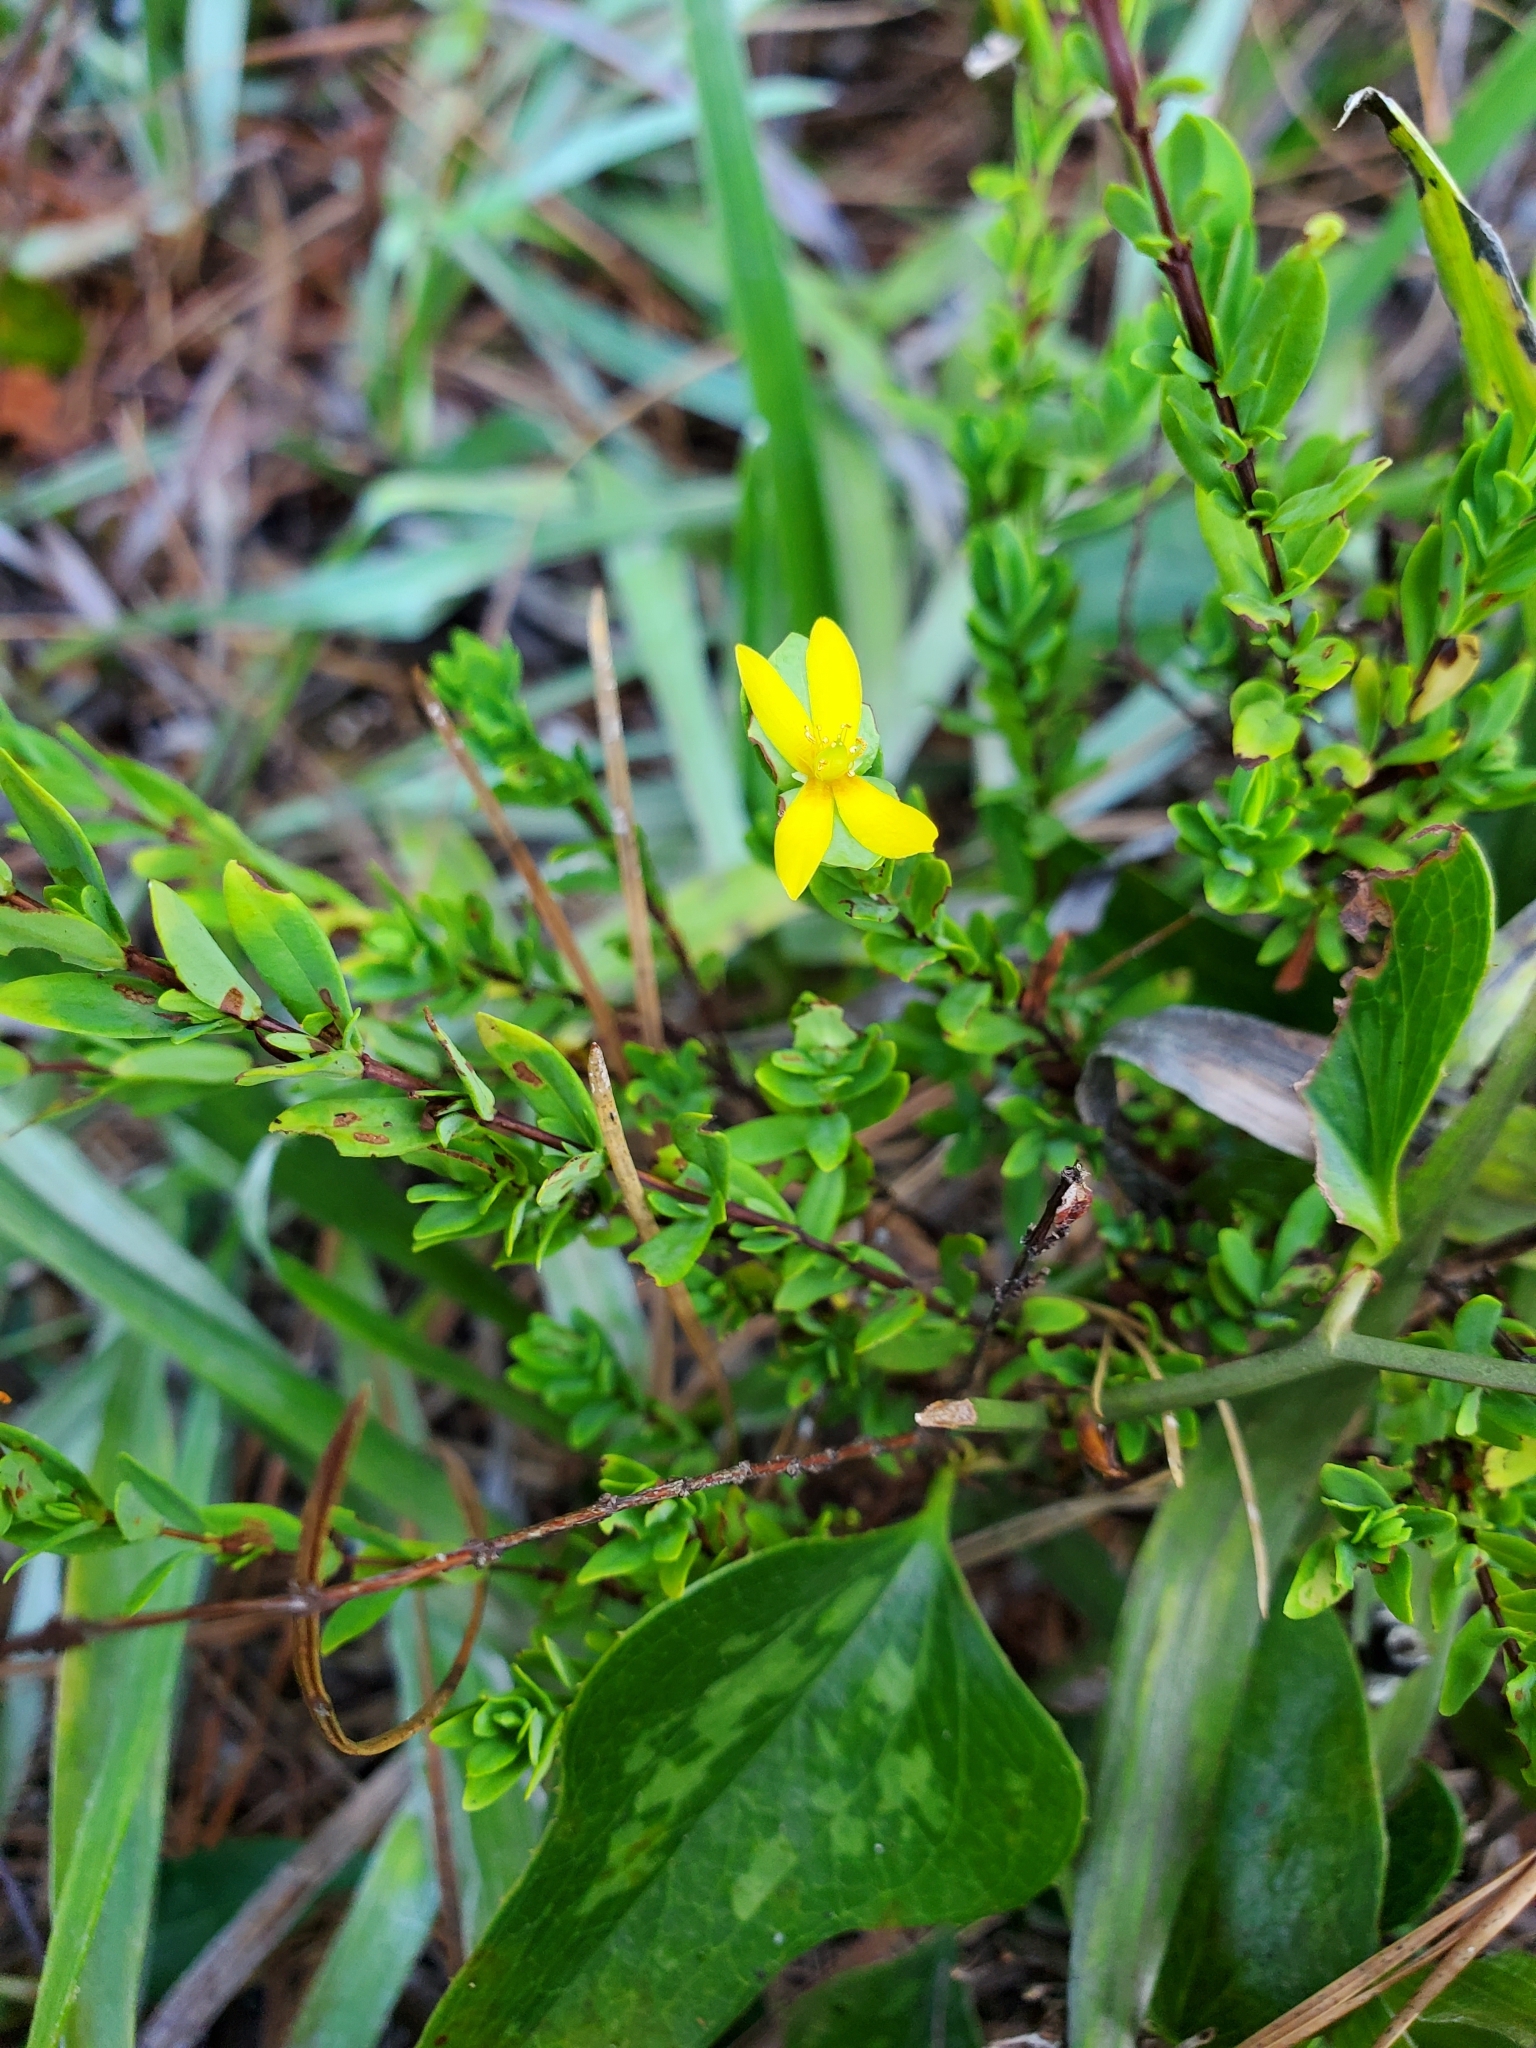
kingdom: Plantae
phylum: Tracheophyta
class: Magnoliopsida
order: Malpighiales
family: Hypericaceae
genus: Hypericum
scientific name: Hypericum hypericoides
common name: St. andrew's cross
